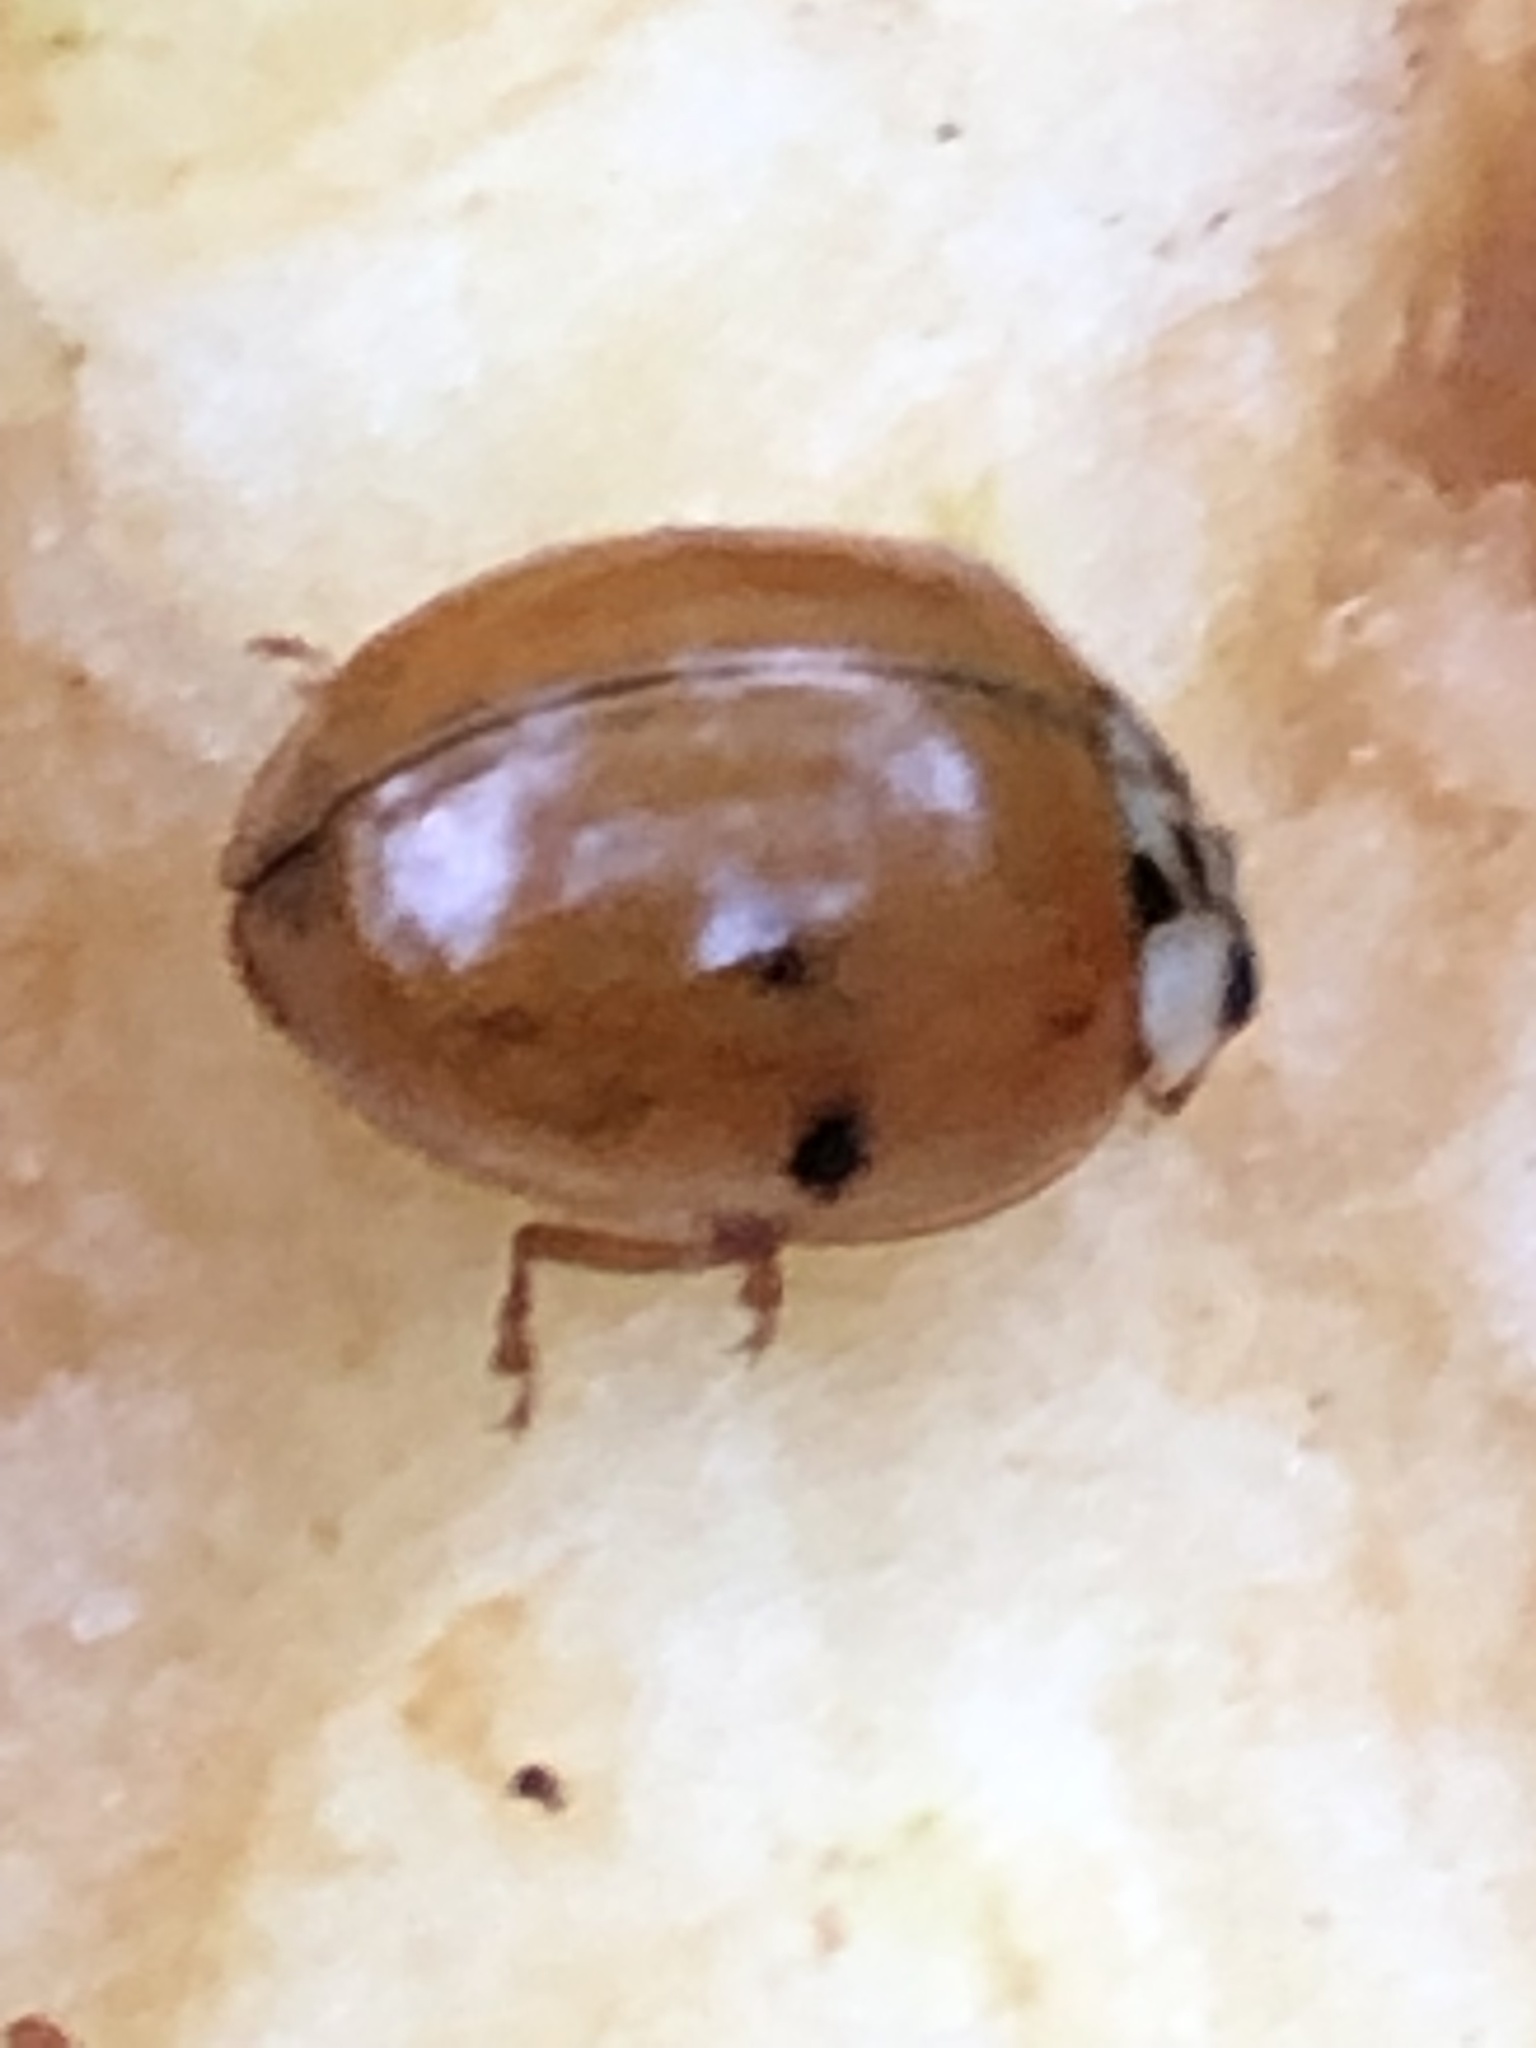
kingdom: Animalia
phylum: Arthropoda
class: Insecta
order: Coleoptera
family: Coccinellidae
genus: Harmonia
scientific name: Harmonia axyridis
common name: Harlequin ladybird
